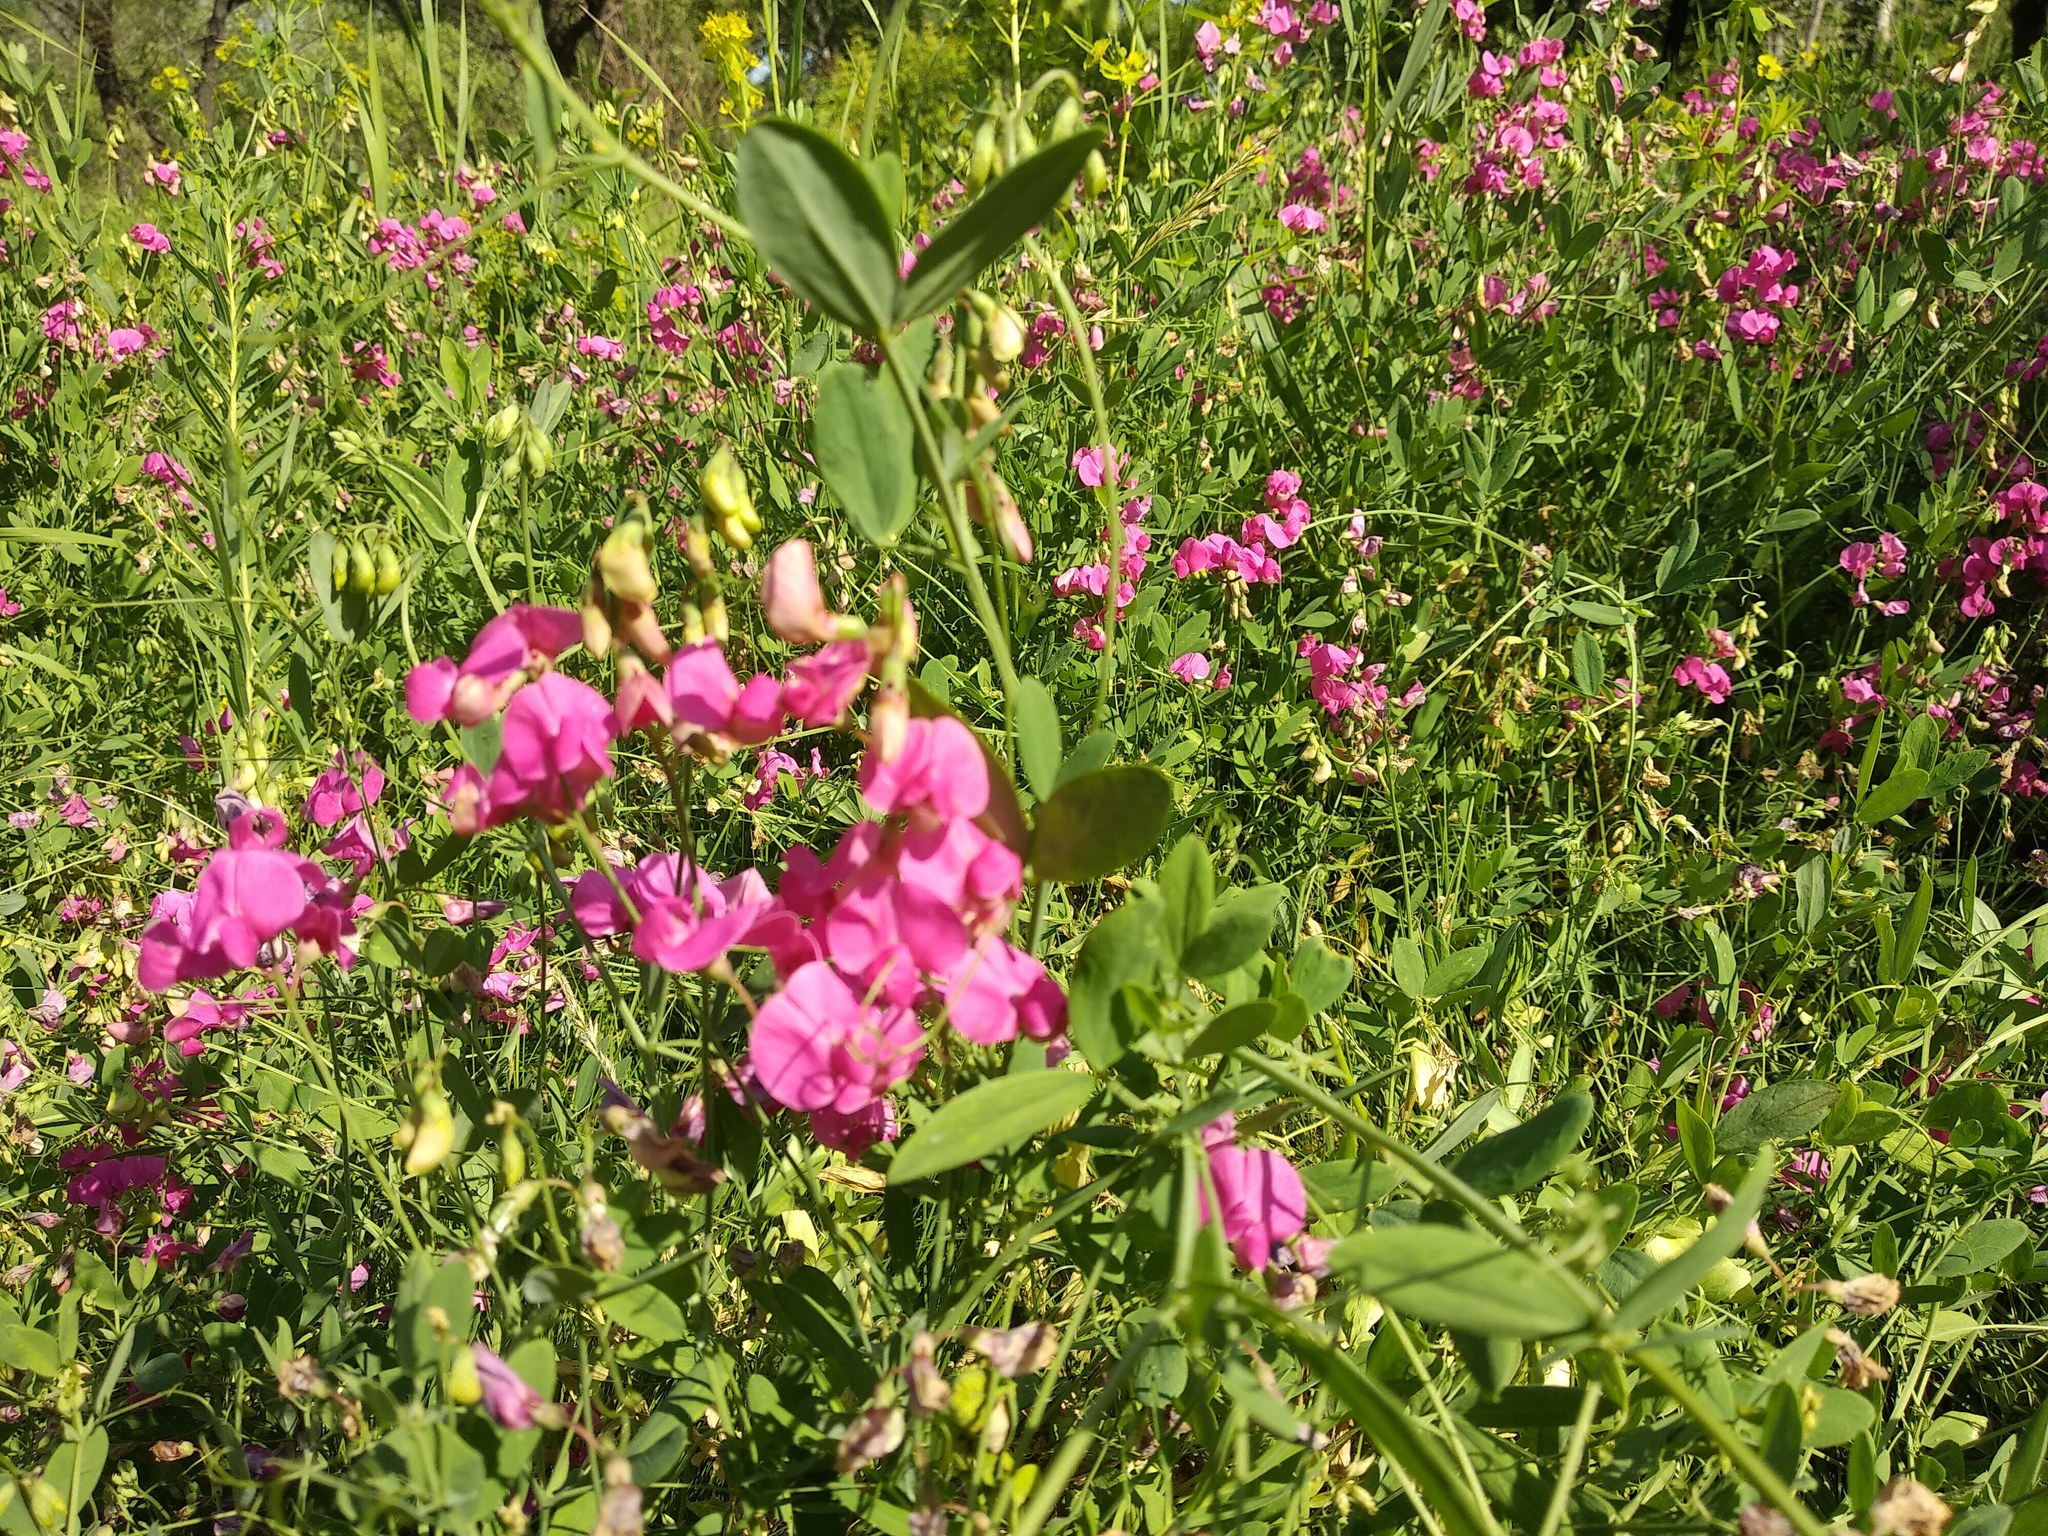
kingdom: Plantae
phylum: Tracheophyta
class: Magnoliopsida
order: Fabales
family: Fabaceae
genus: Lathyrus
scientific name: Lathyrus tuberosus
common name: Tuberous pea
